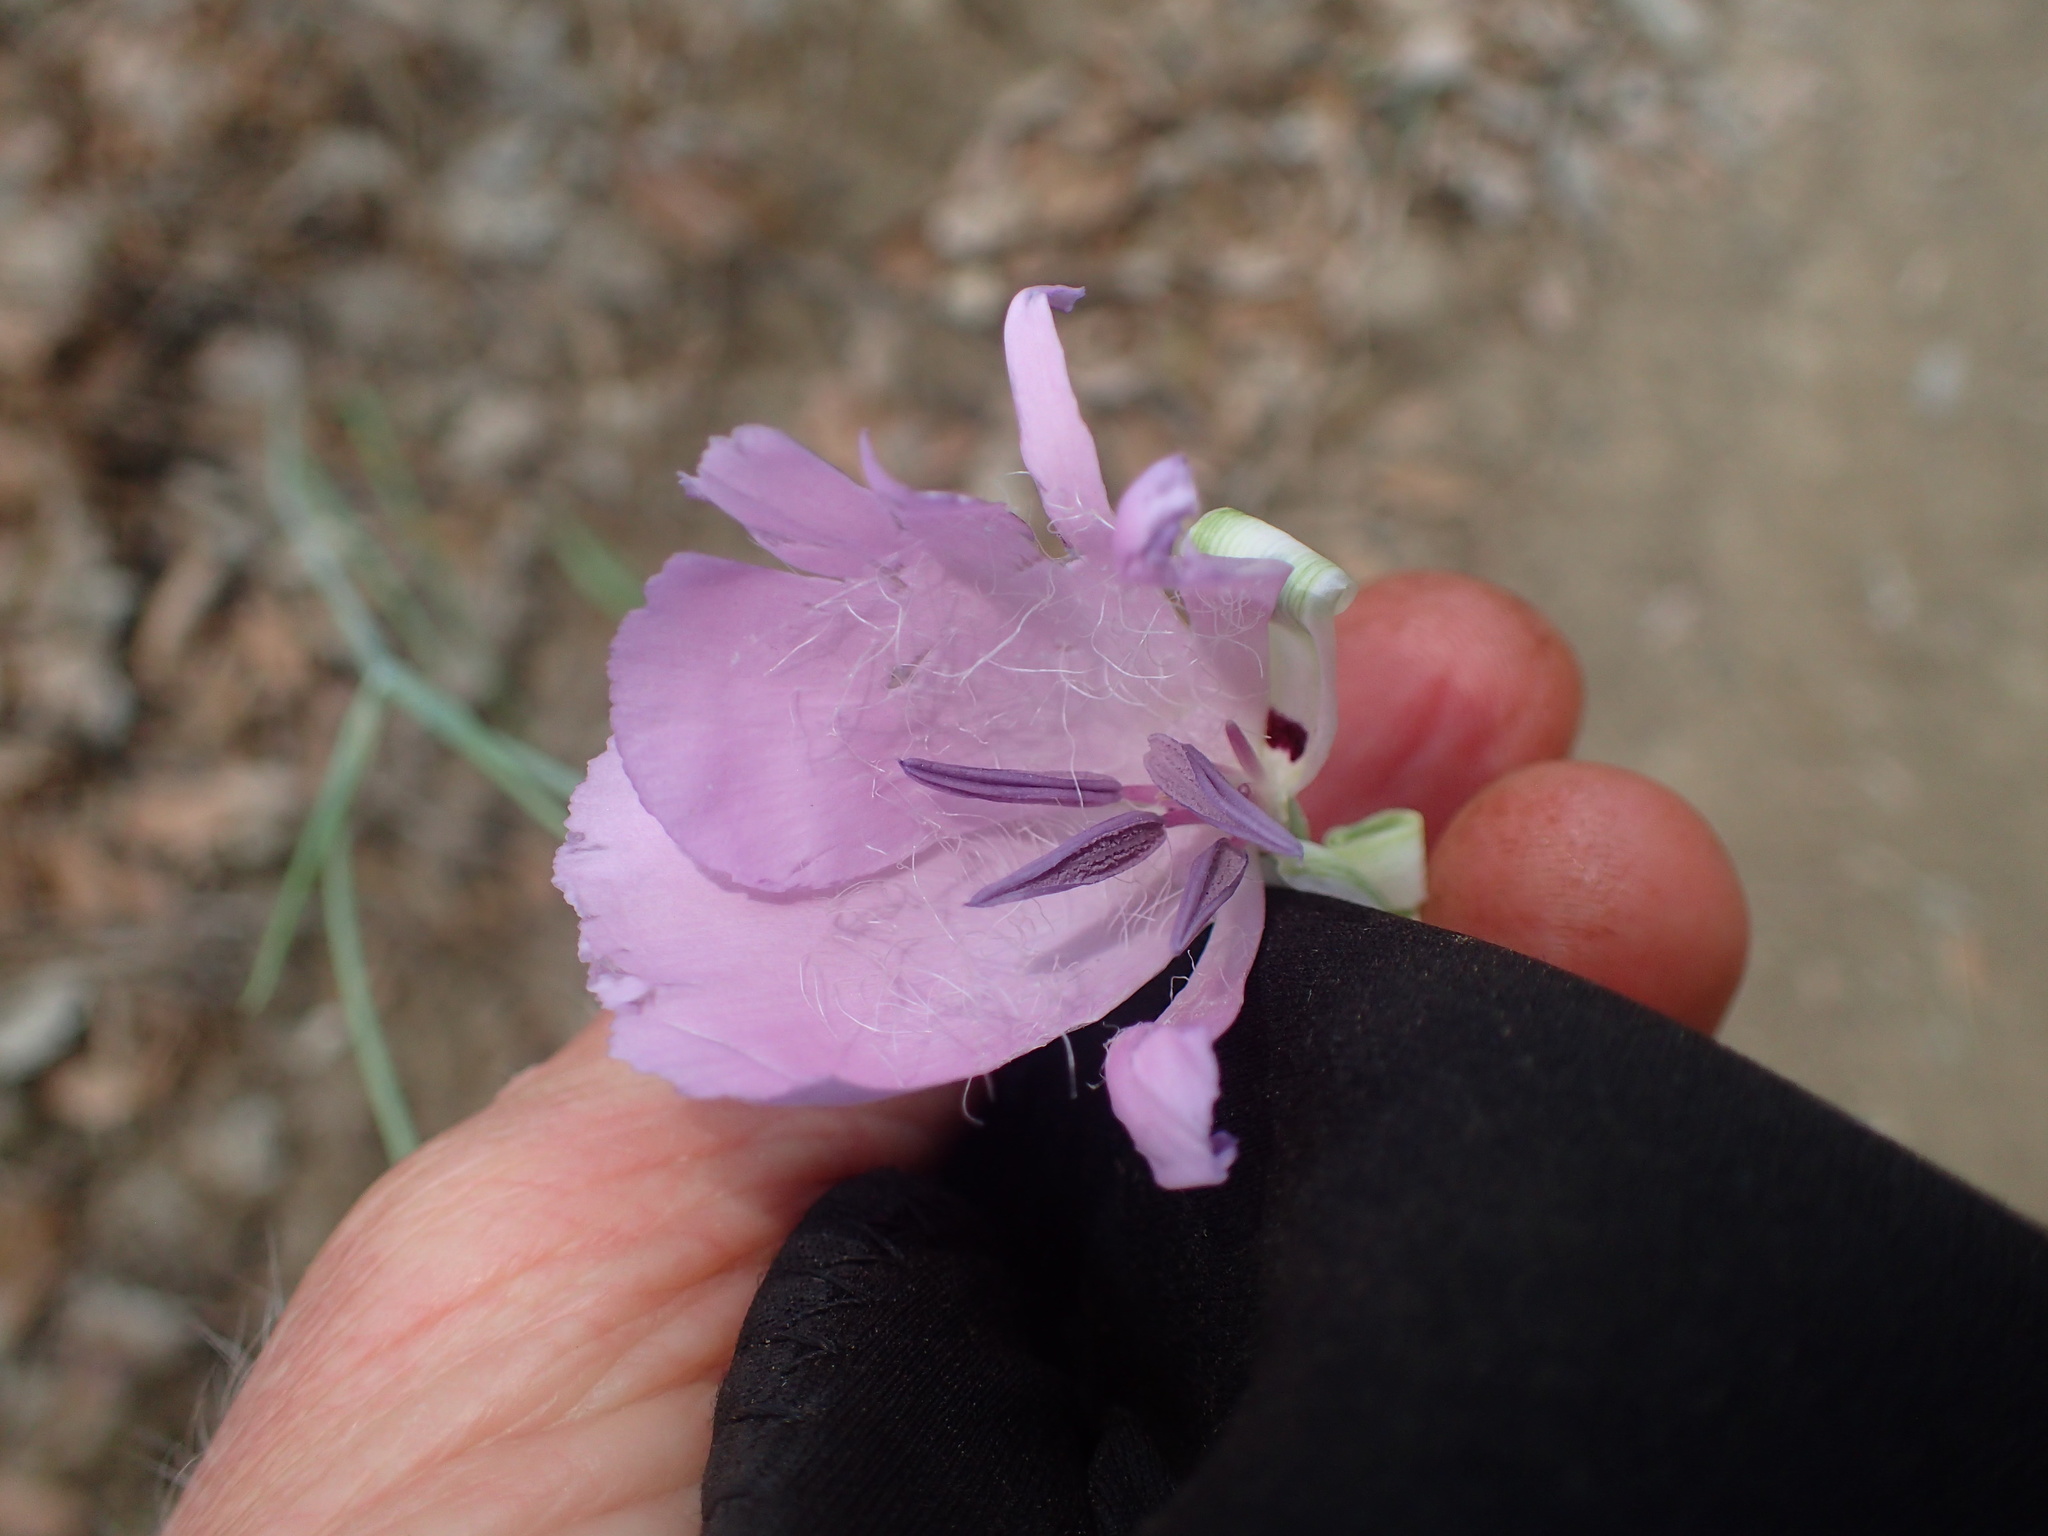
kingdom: Plantae
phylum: Tracheophyta
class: Liliopsida
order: Liliales
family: Liliaceae
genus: Calochortus
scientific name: Calochortus splendens
